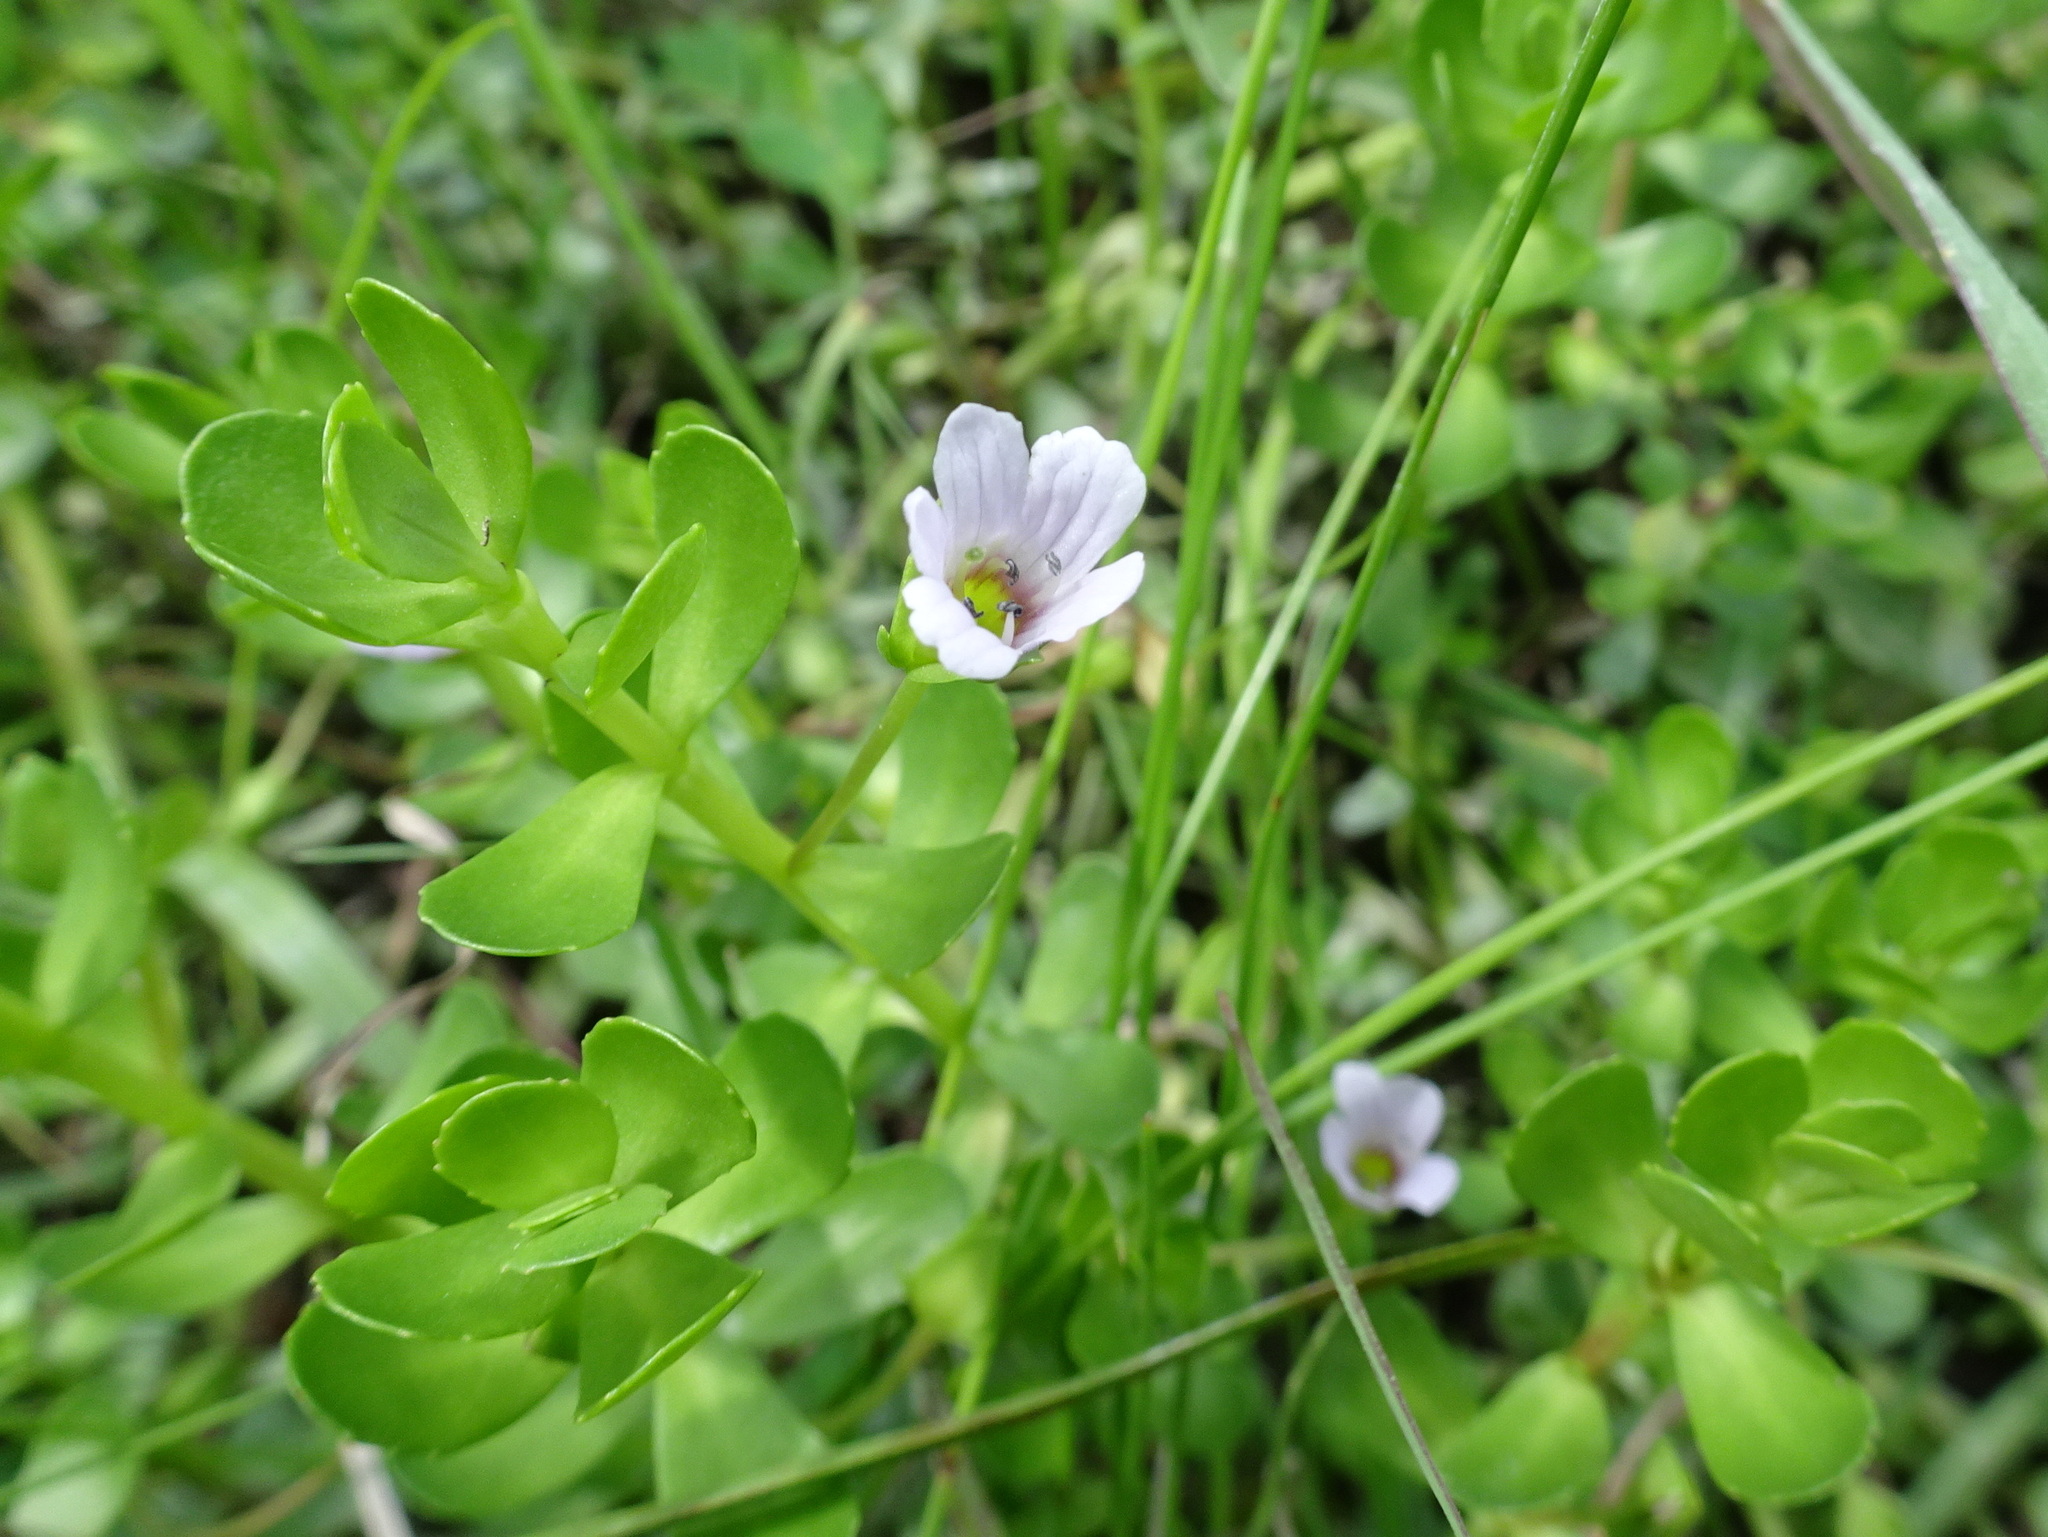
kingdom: Plantae
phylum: Tracheophyta
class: Magnoliopsida
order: Lamiales
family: Plantaginaceae
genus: Bacopa
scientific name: Bacopa monnieri
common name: Indian-pennywort
